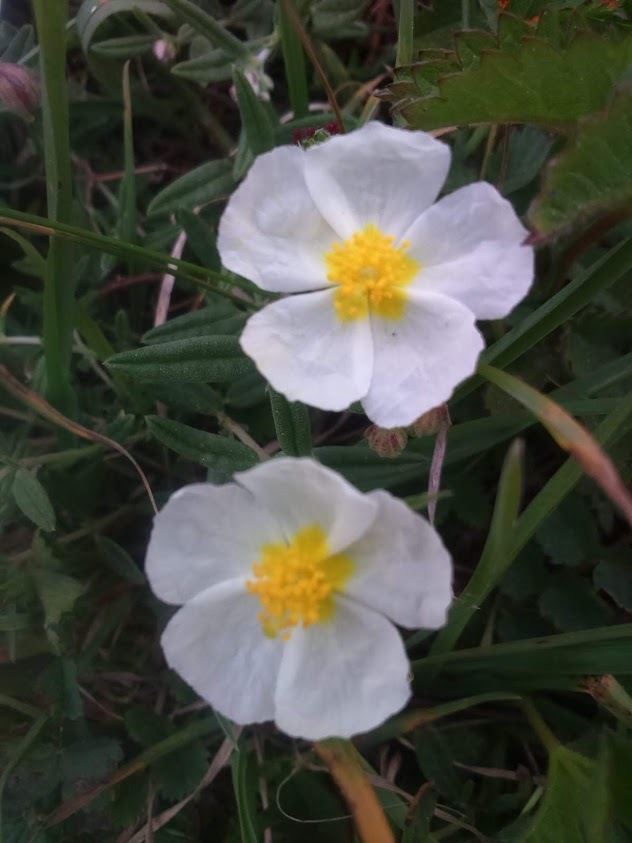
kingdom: Plantae
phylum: Tracheophyta
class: Magnoliopsida
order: Malvales
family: Cistaceae
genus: Helianthemum
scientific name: Helianthemum apenninum
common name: White rock-rose
